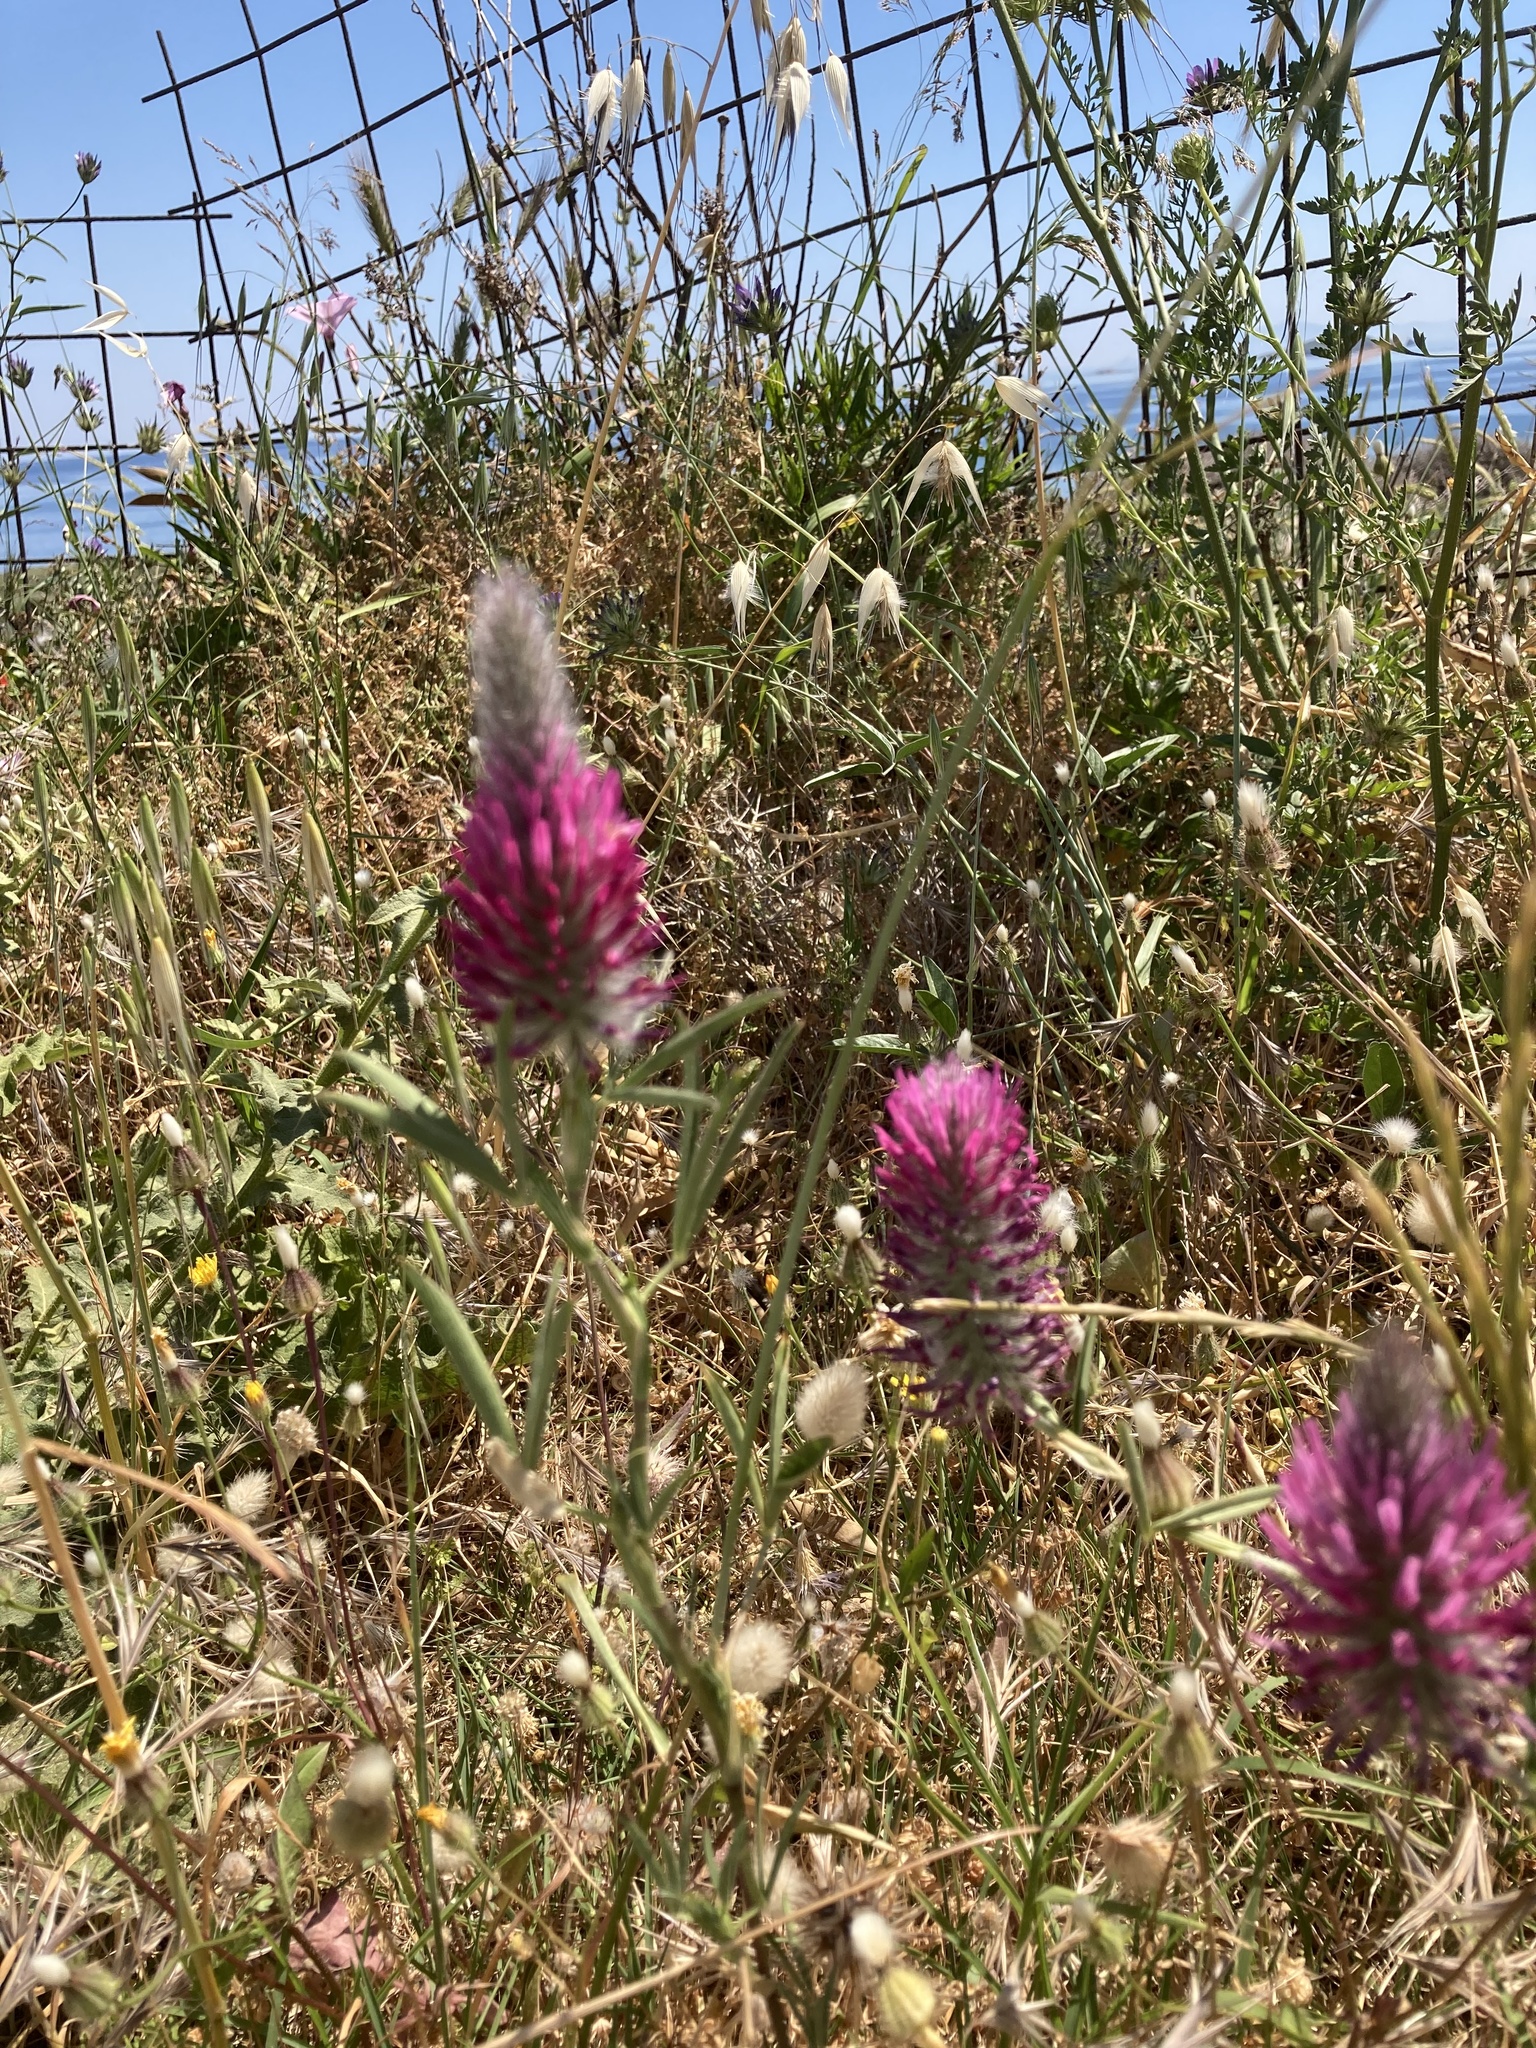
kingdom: Plantae
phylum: Tracheophyta
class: Magnoliopsida
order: Fabales
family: Fabaceae
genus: Trifolium
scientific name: Trifolium purpureum
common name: Purple clover
